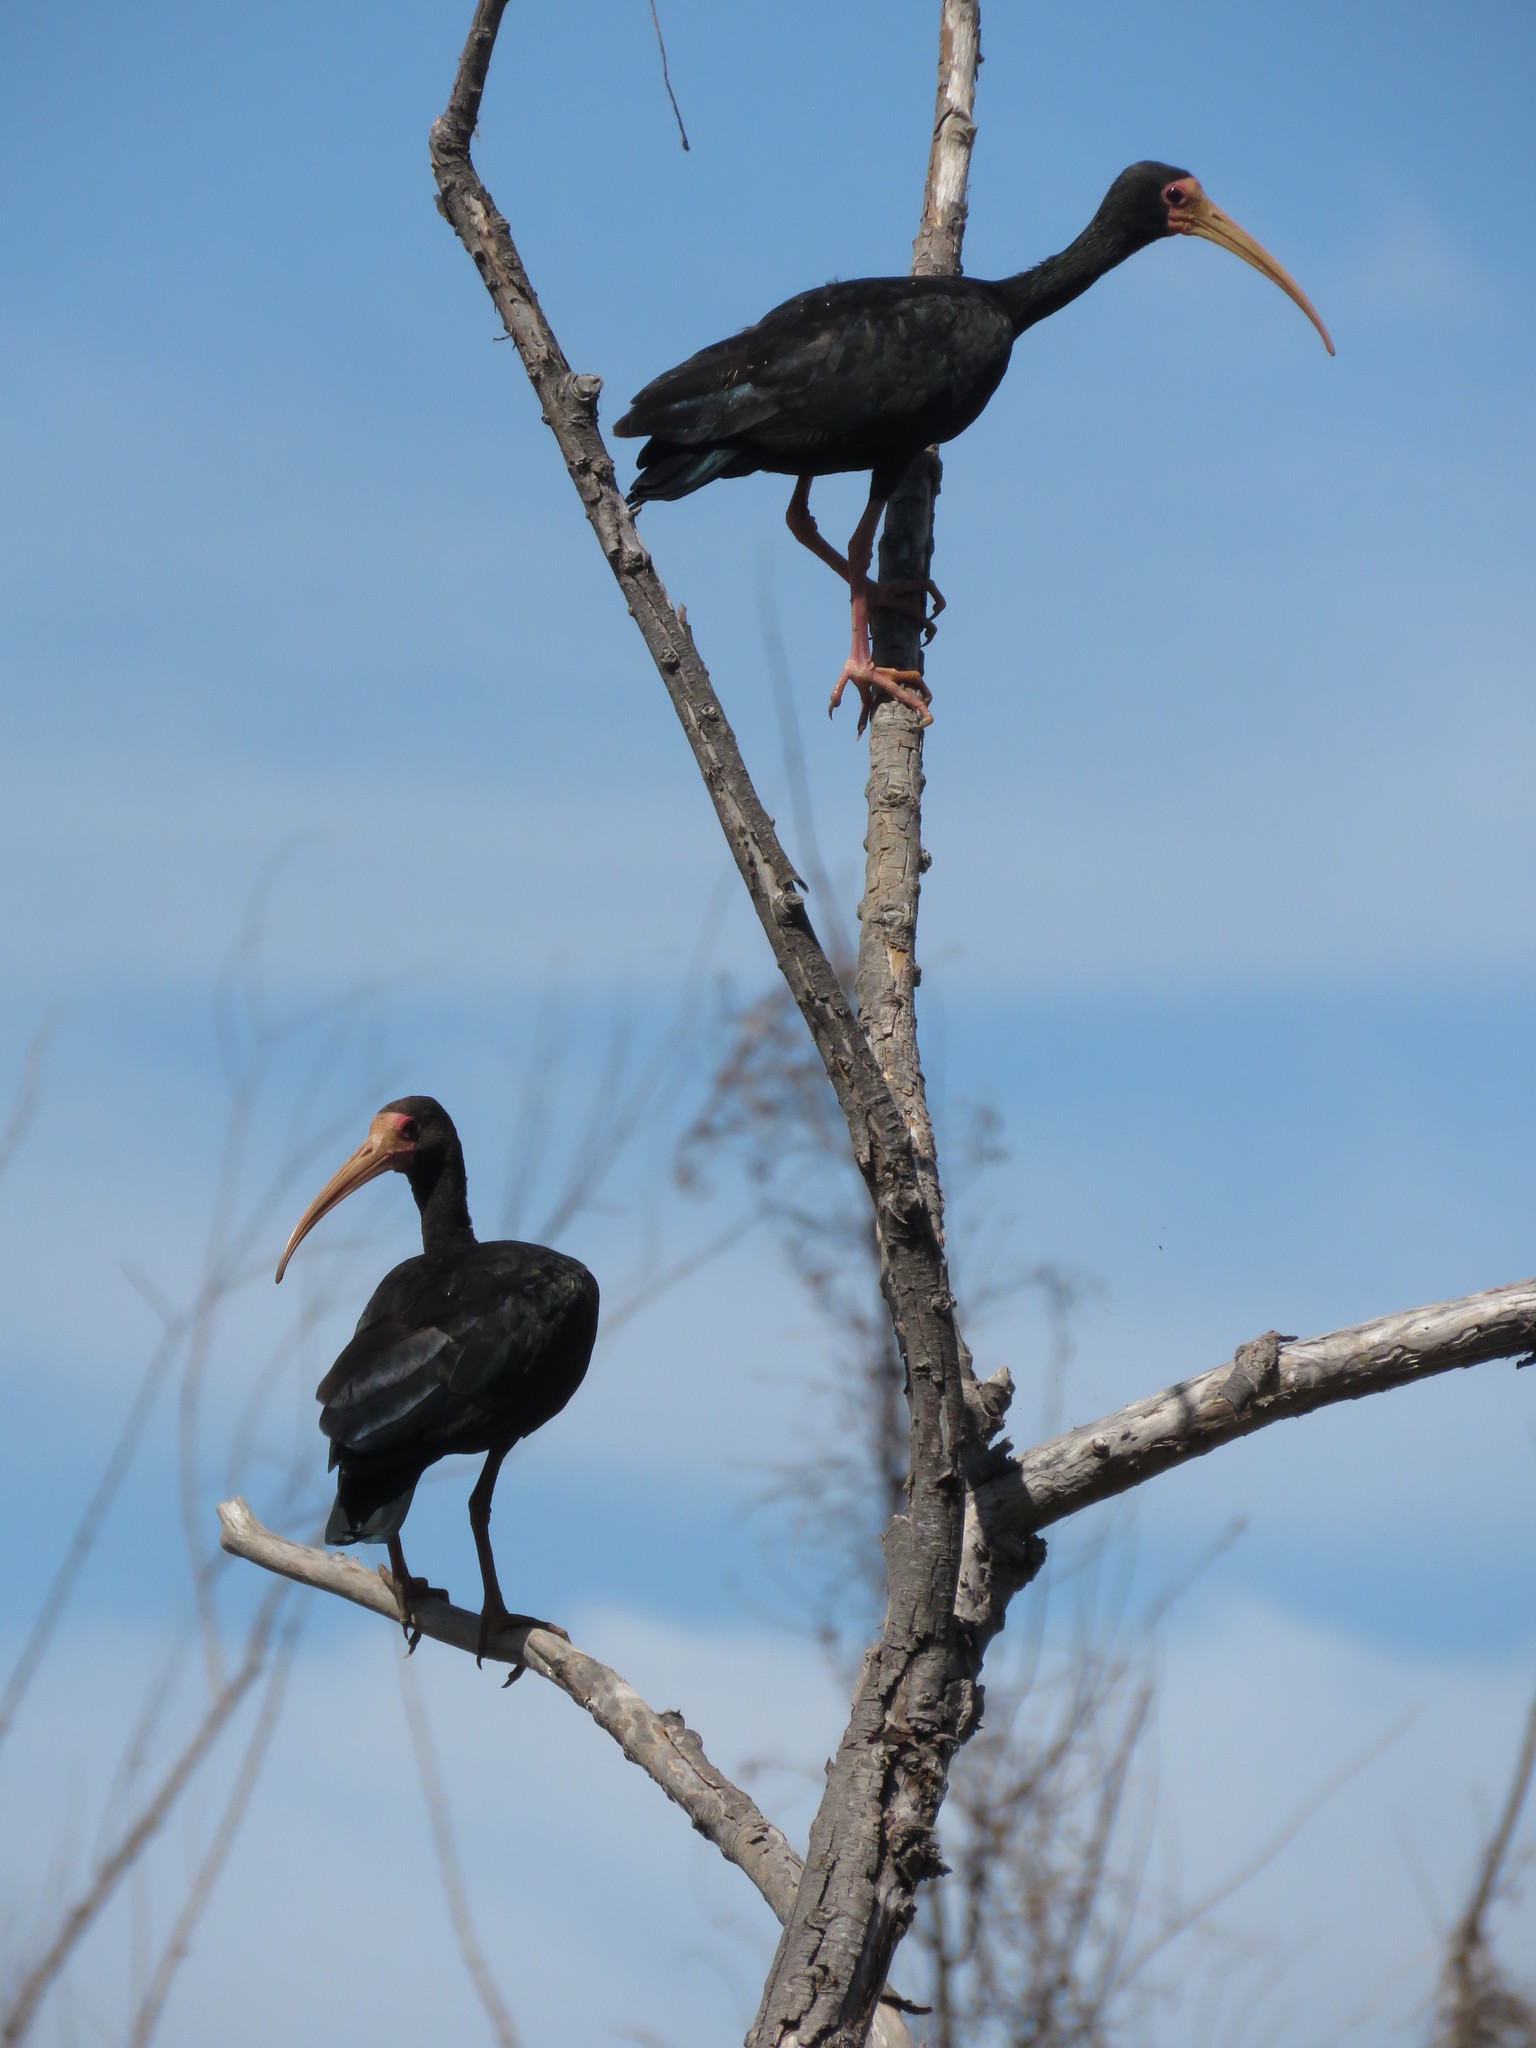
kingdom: Animalia
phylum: Chordata
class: Aves
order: Pelecaniformes
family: Threskiornithidae
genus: Phimosus
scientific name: Phimosus infuscatus
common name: Bare-faced ibis
